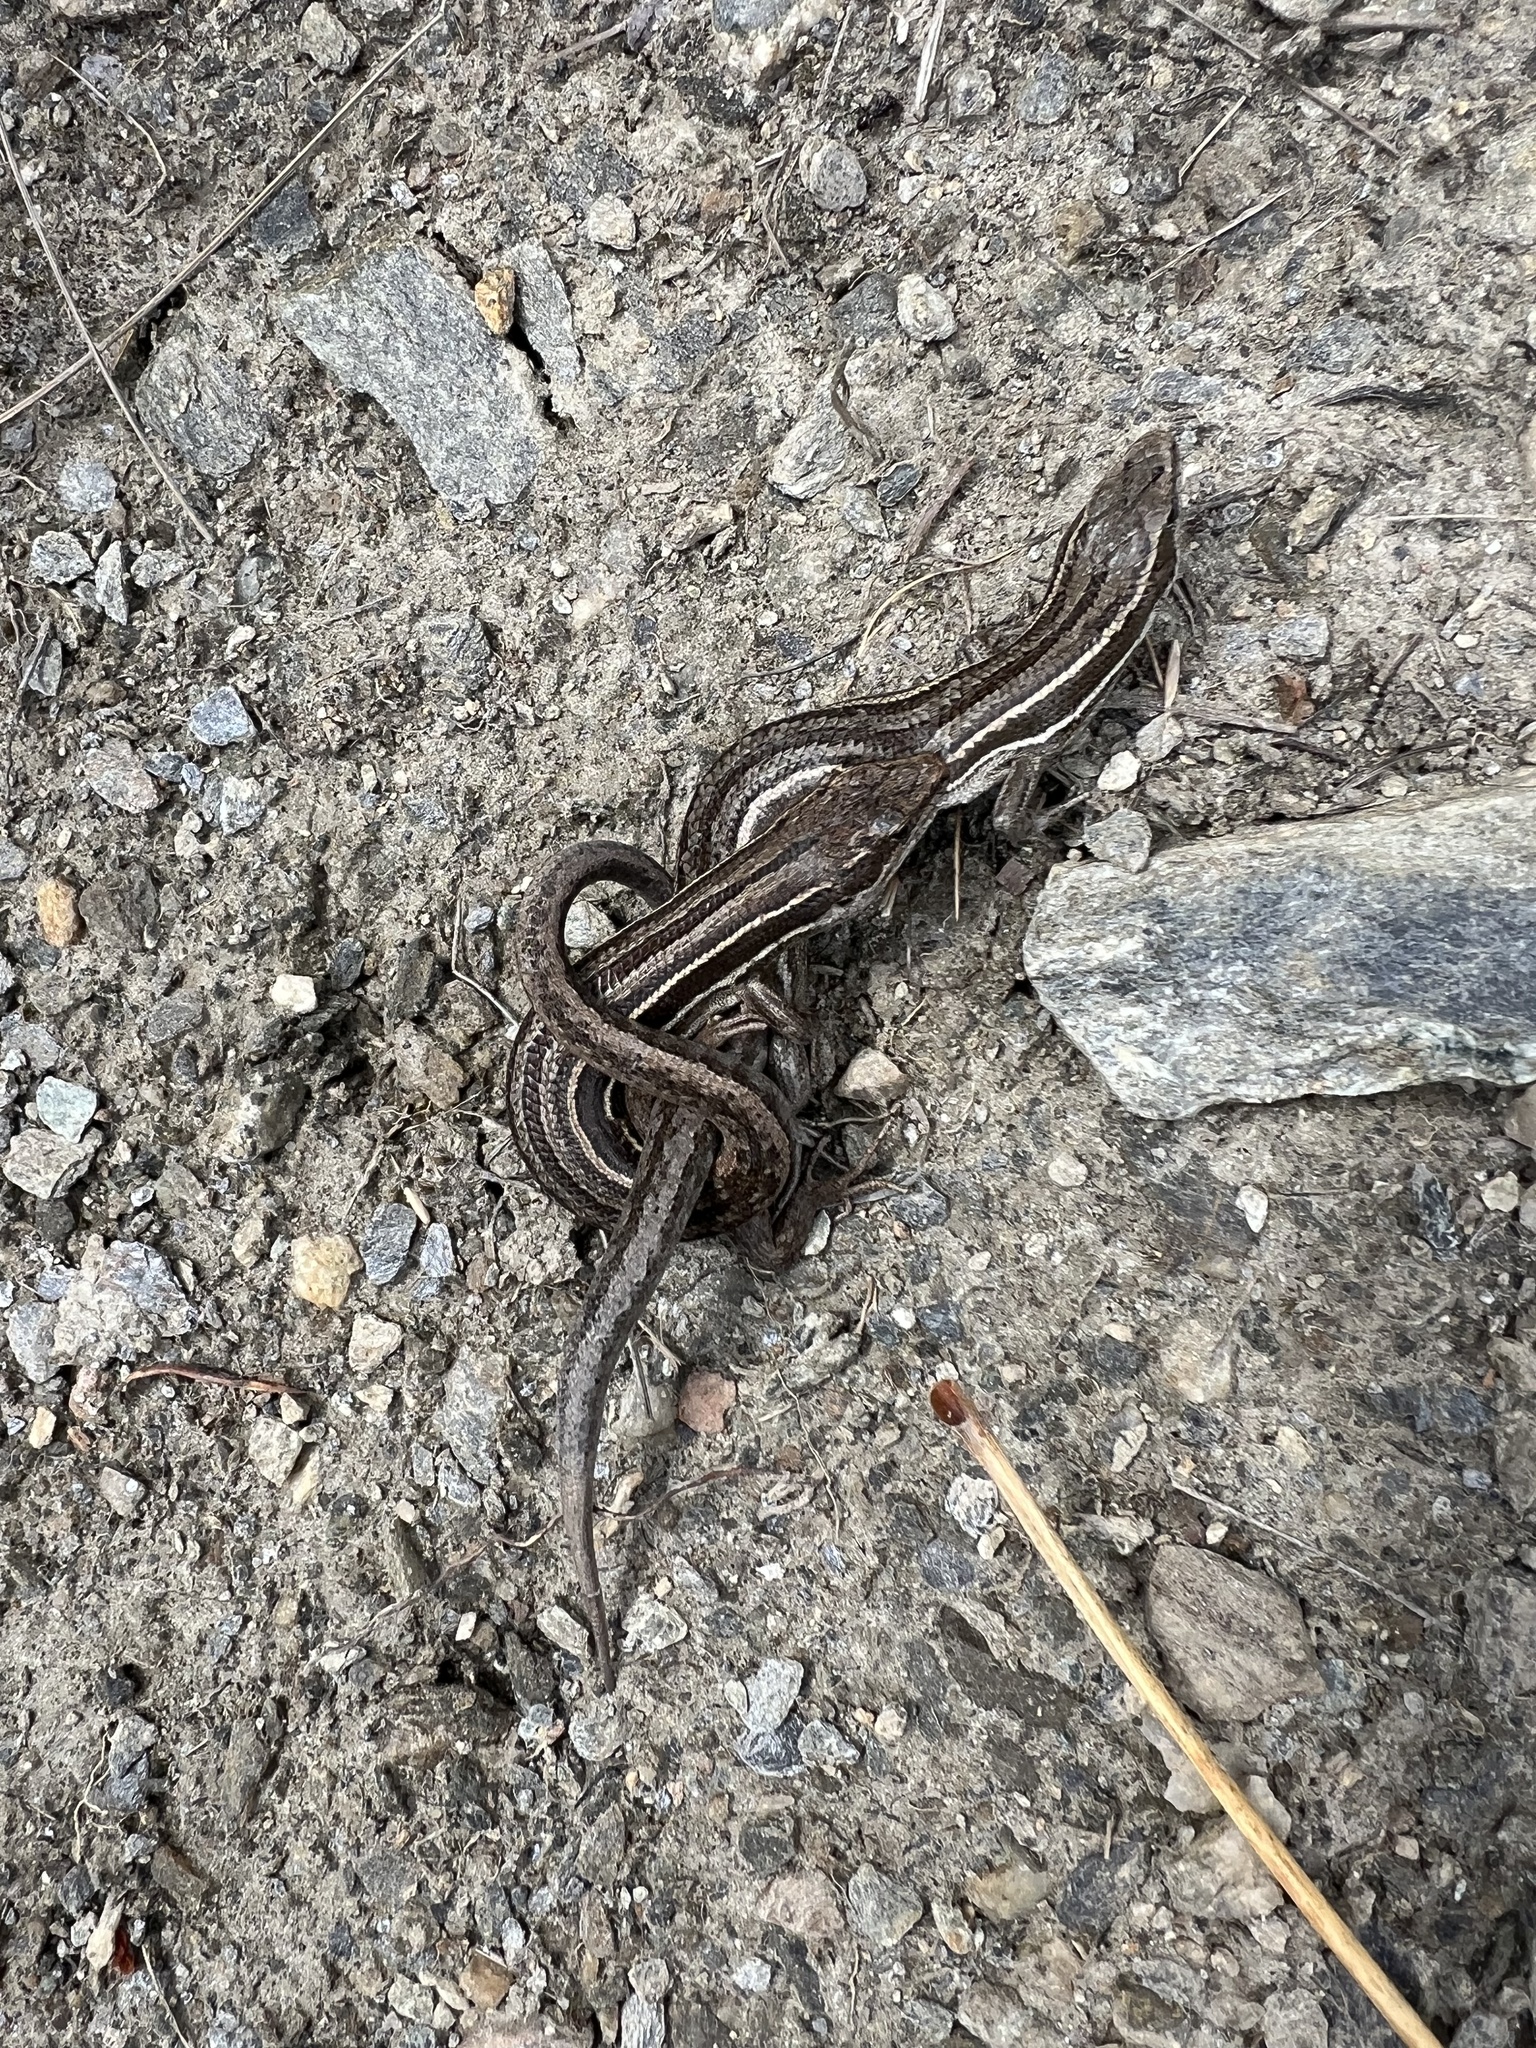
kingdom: Animalia
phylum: Chordata
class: Squamata
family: Scincidae
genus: Oligosoma
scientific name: Oligosoma maccanni
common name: Mccann’s skink
